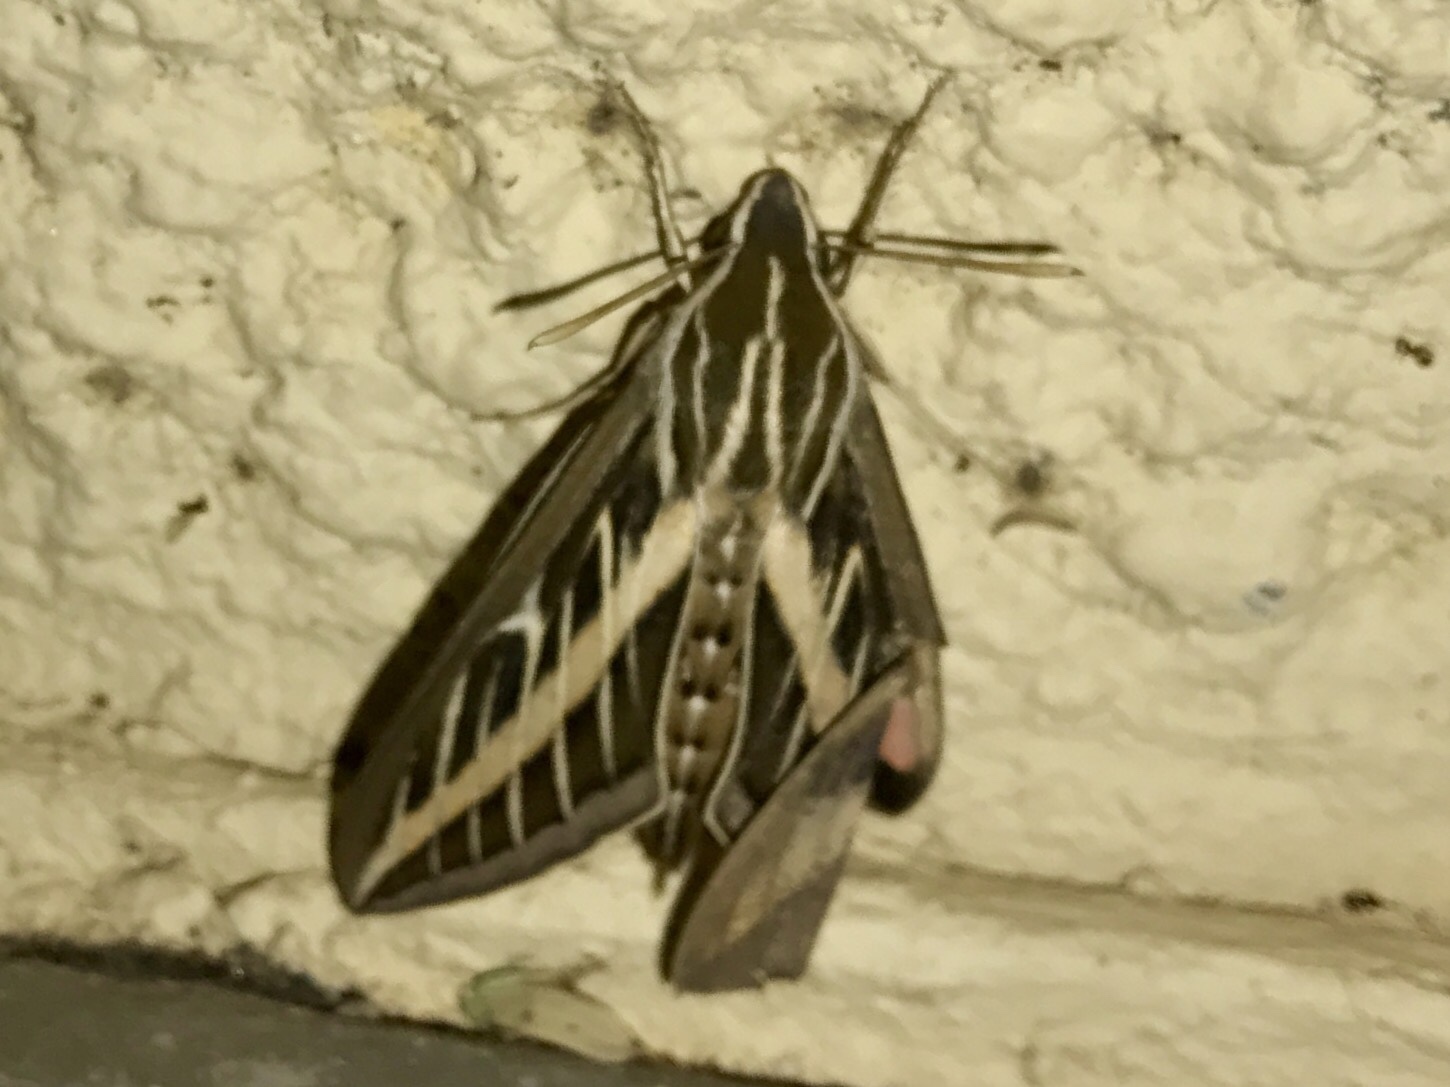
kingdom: Animalia
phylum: Arthropoda
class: Insecta
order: Lepidoptera
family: Sphingidae
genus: Hyles
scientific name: Hyles lineata
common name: White-lined sphinx
